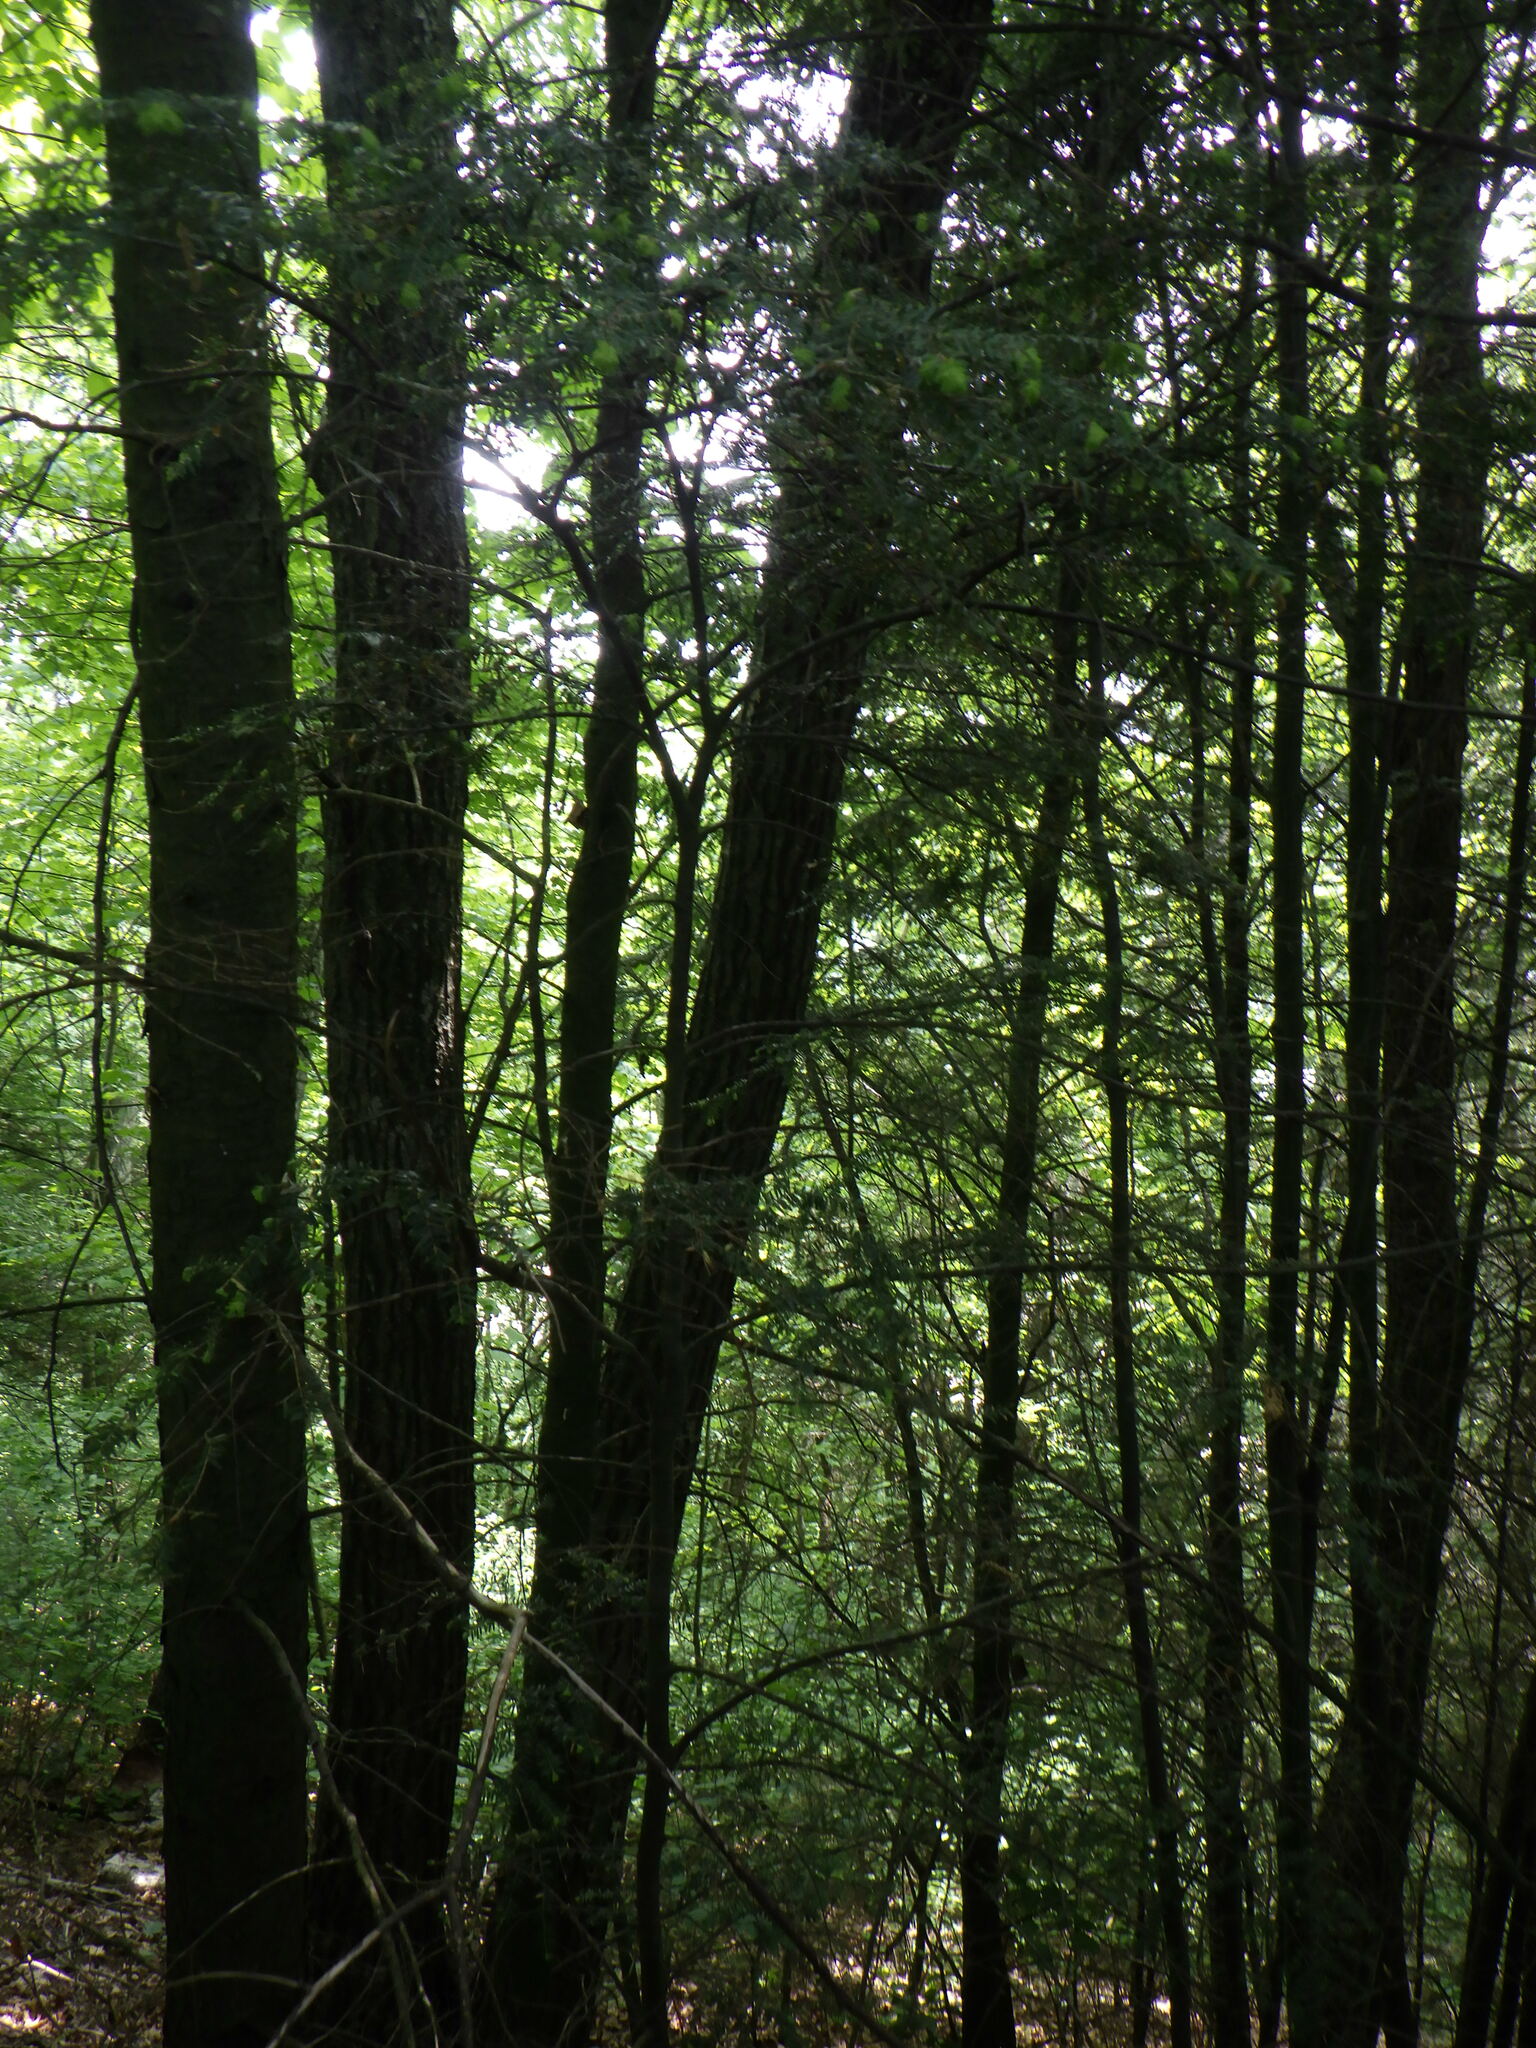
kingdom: Plantae
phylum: Tracheophyta
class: Pinopsida
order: Pinales
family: Pinaceae
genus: Tsuga
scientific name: Tsuga canadensis
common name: Eastern hemlock
